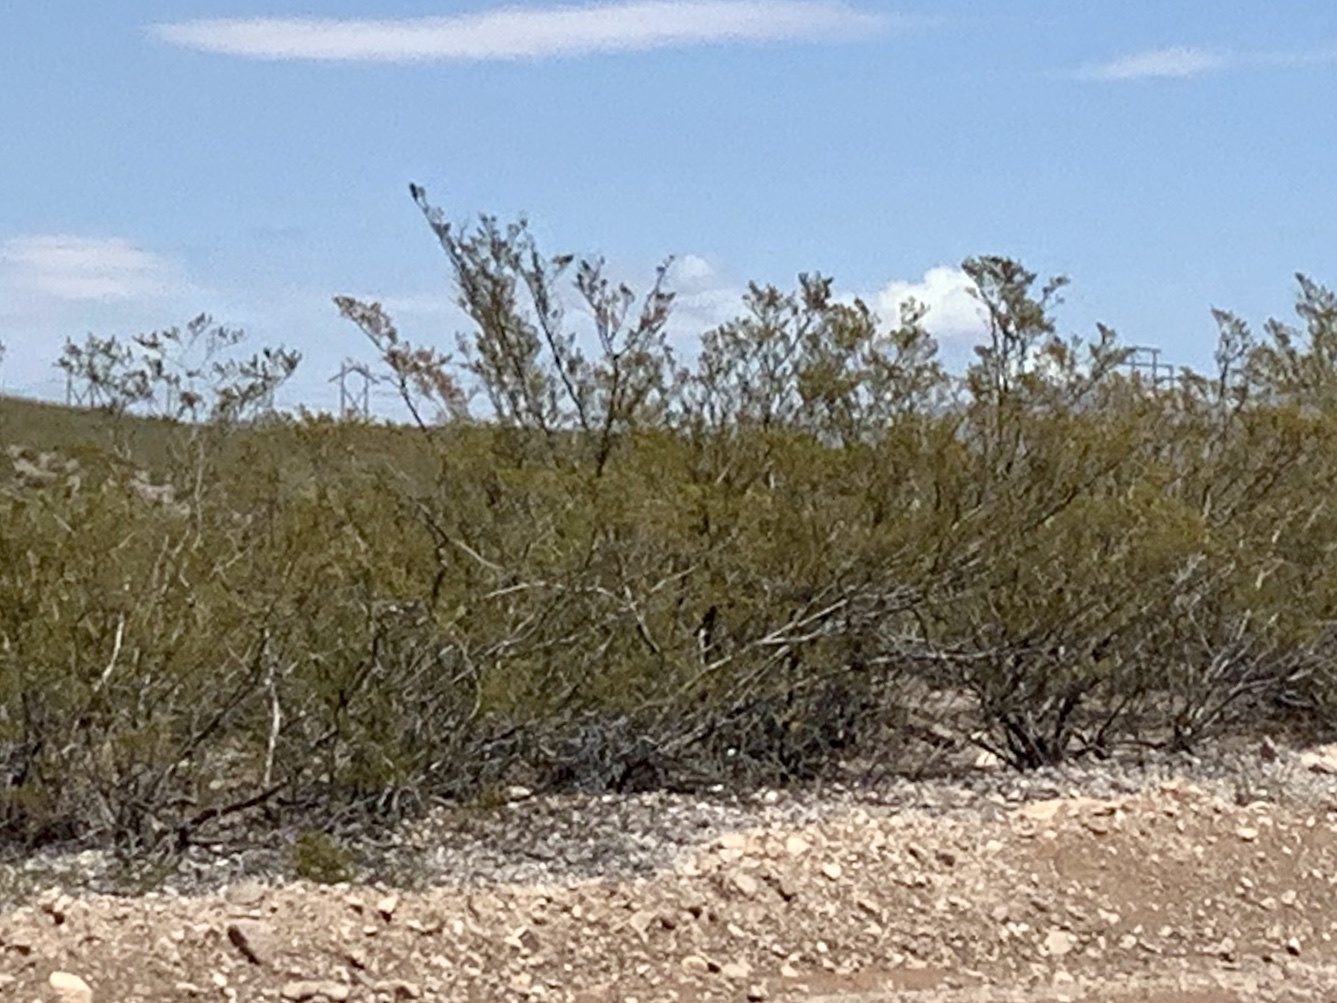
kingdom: Plantae
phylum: Tracheophyta
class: Magnoliopsida
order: Zygophyllales
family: Zygophyllaceae
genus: Larrea
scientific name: Larrea tridentata
